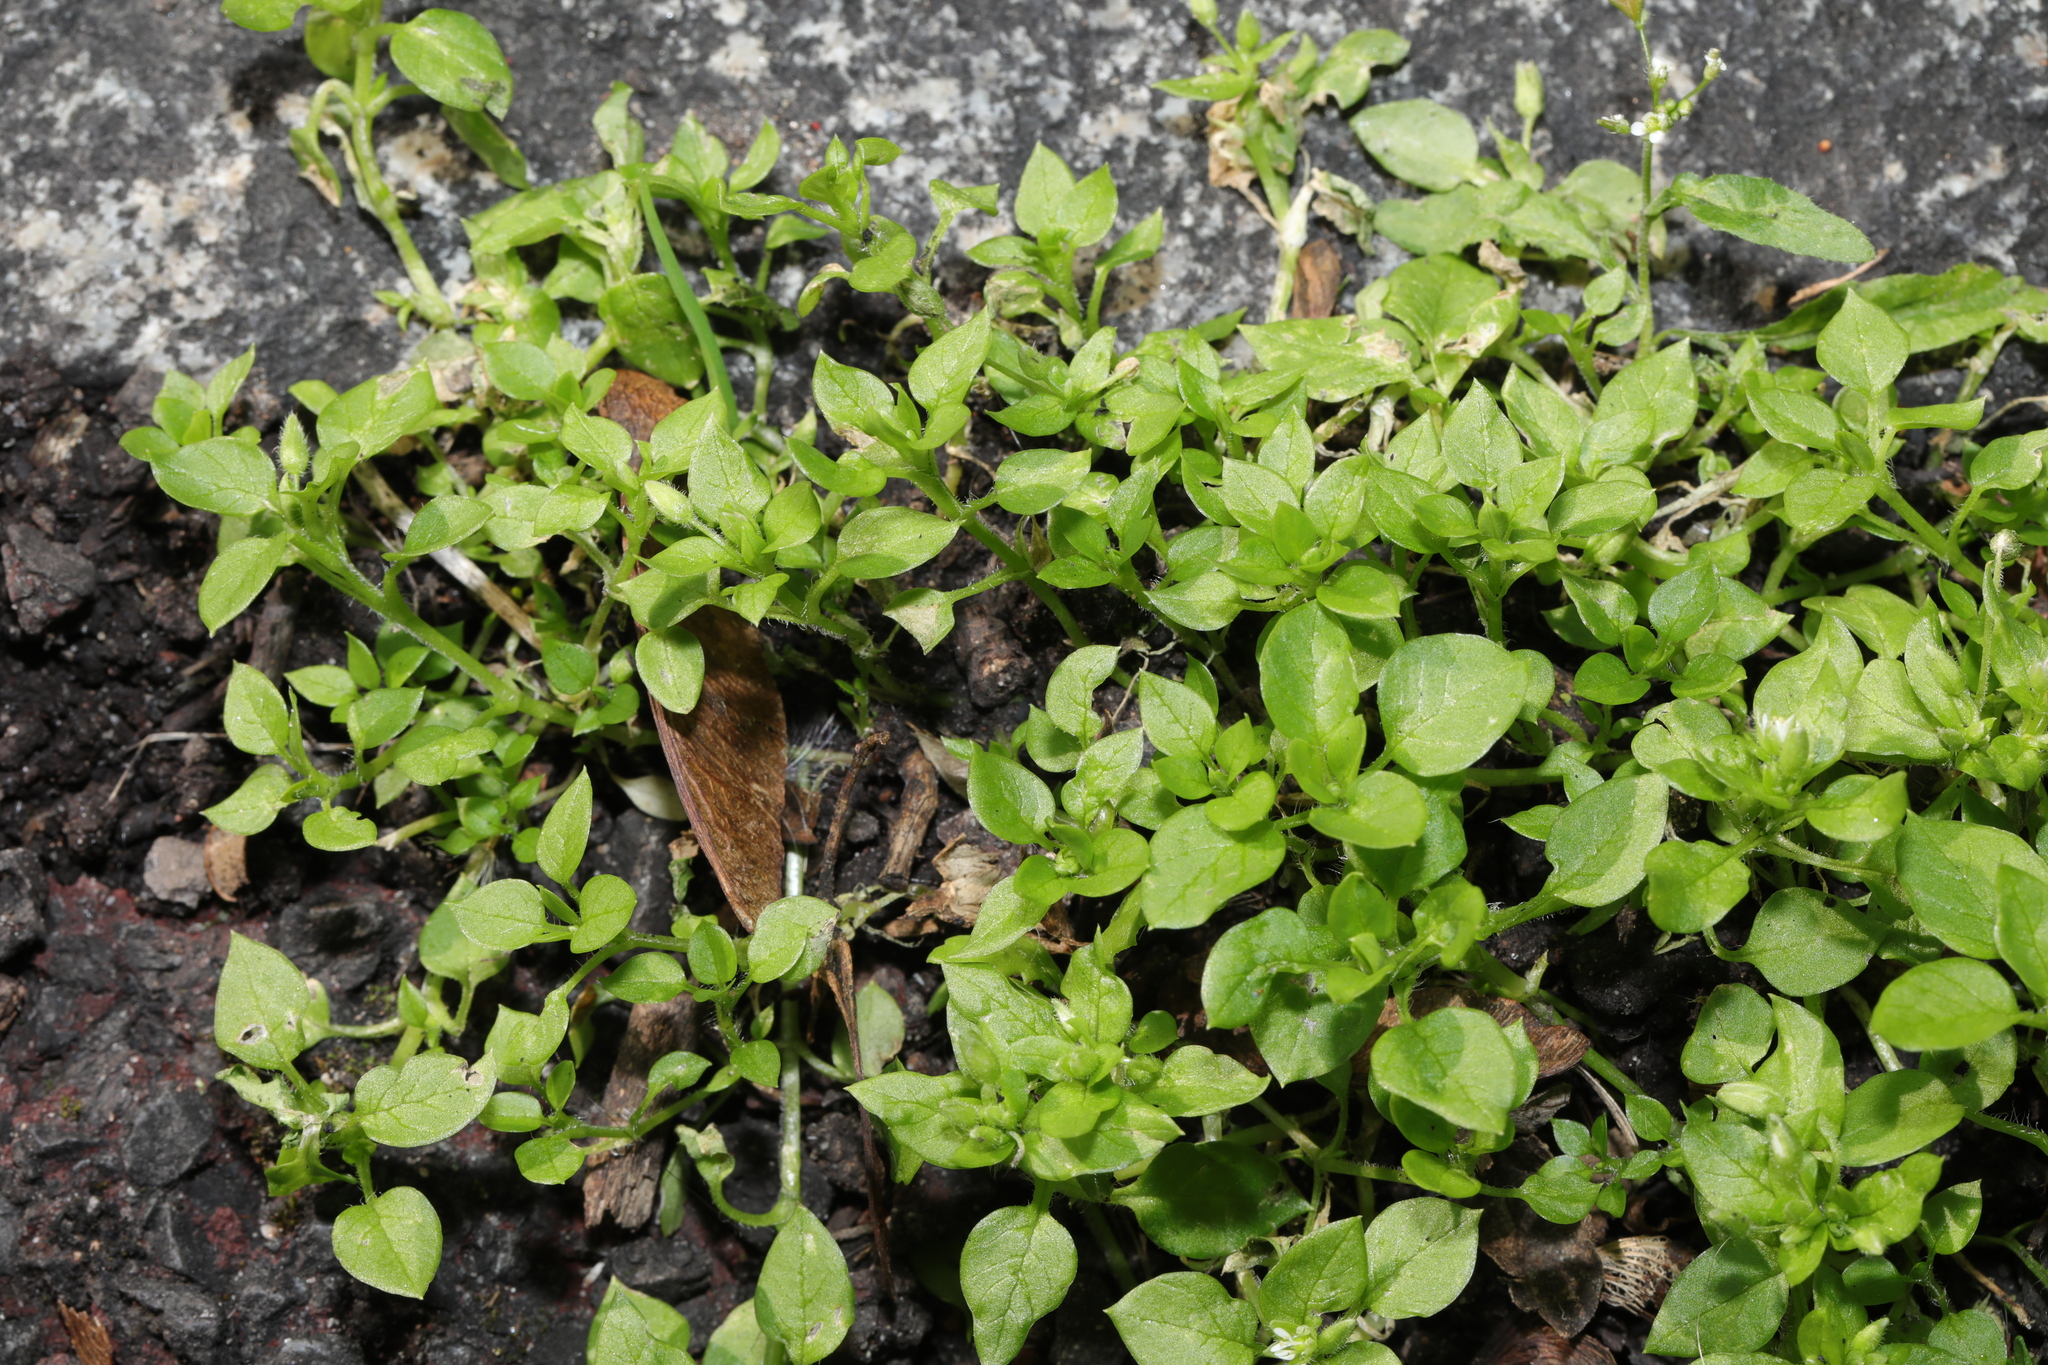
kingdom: Plantae
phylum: Tracheophyta
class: Magnoliopsida
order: Caryophyllales
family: Caryophyllaceae
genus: Stellaria
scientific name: Stellaria media
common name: Common chickweed
